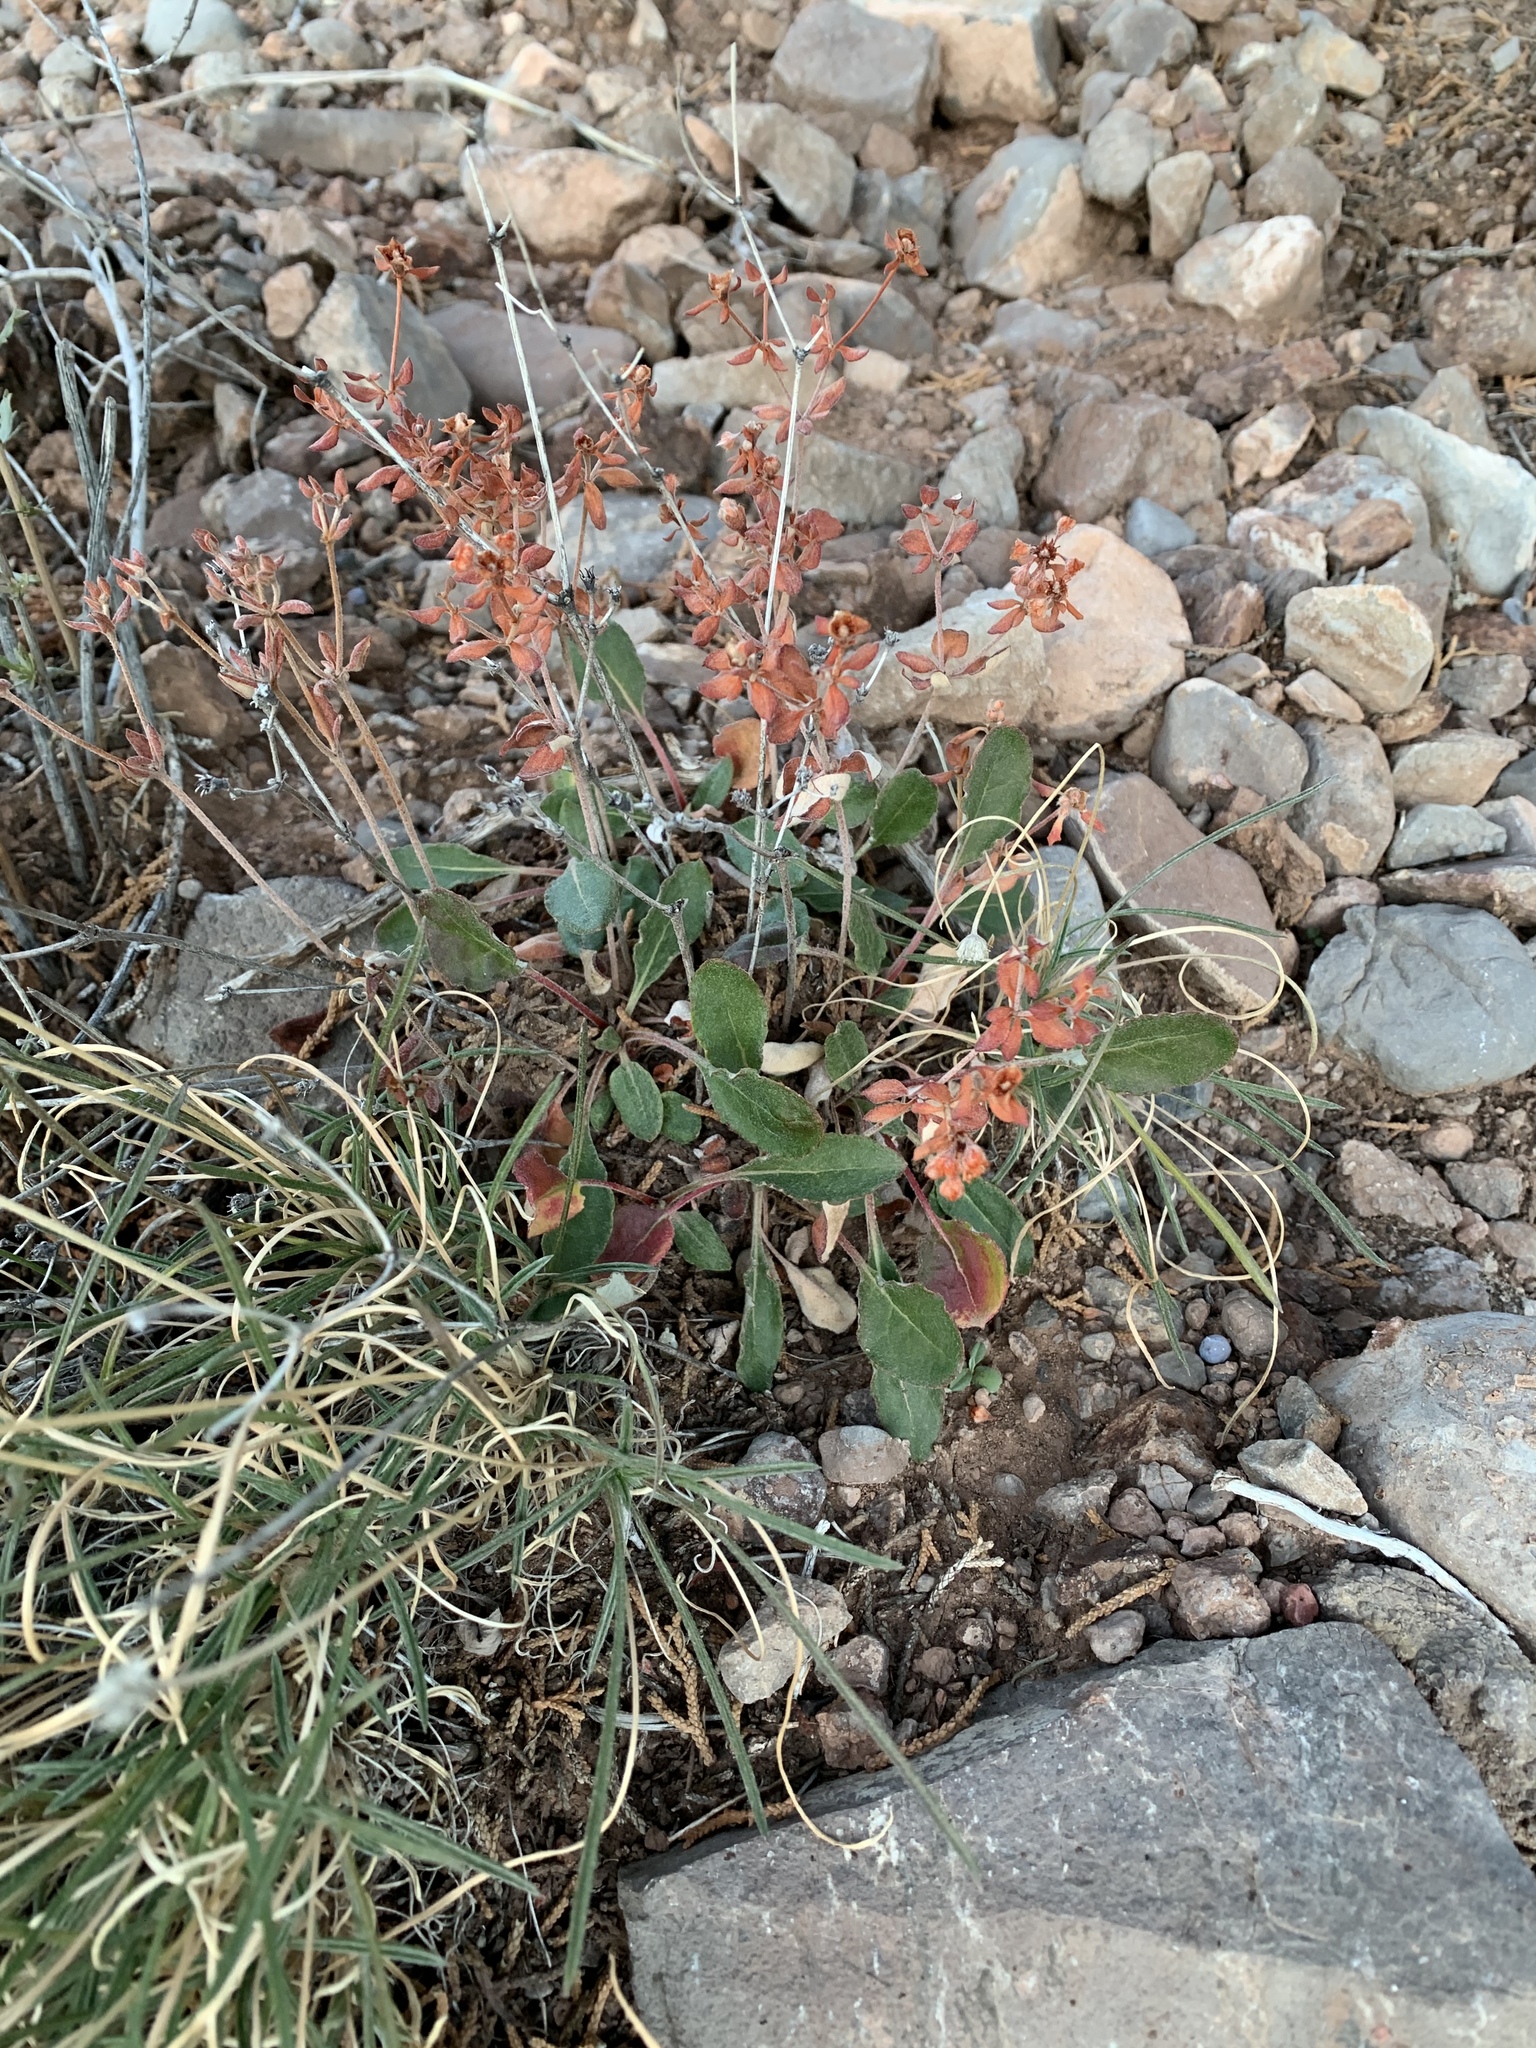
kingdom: Plantae
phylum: Tracheophyta
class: Magnoliopsida
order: Caryophyllales
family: Polygonaceae
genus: Eriogonum
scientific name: Eriogonum wootonii
